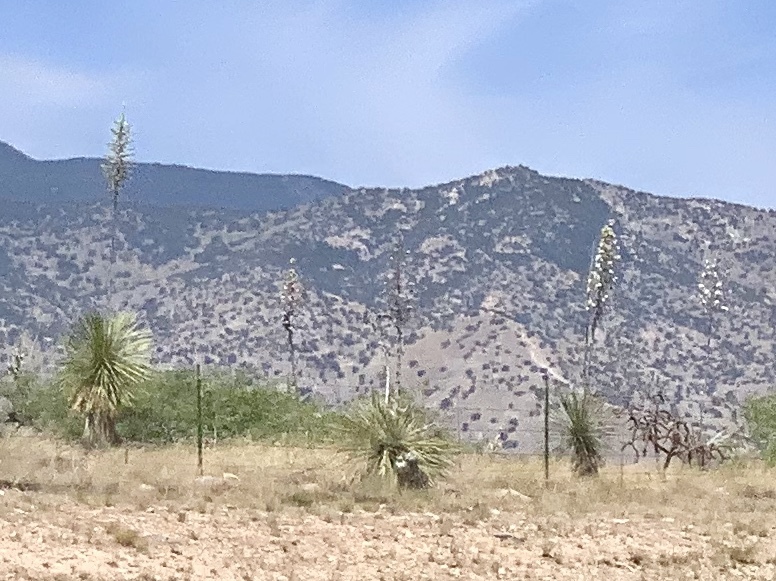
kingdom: Plantae
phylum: Tracheophyta
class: Liliopsida
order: Asparagales
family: Asparagaceae
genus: Yucca
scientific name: Yucca elata
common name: Palmella
